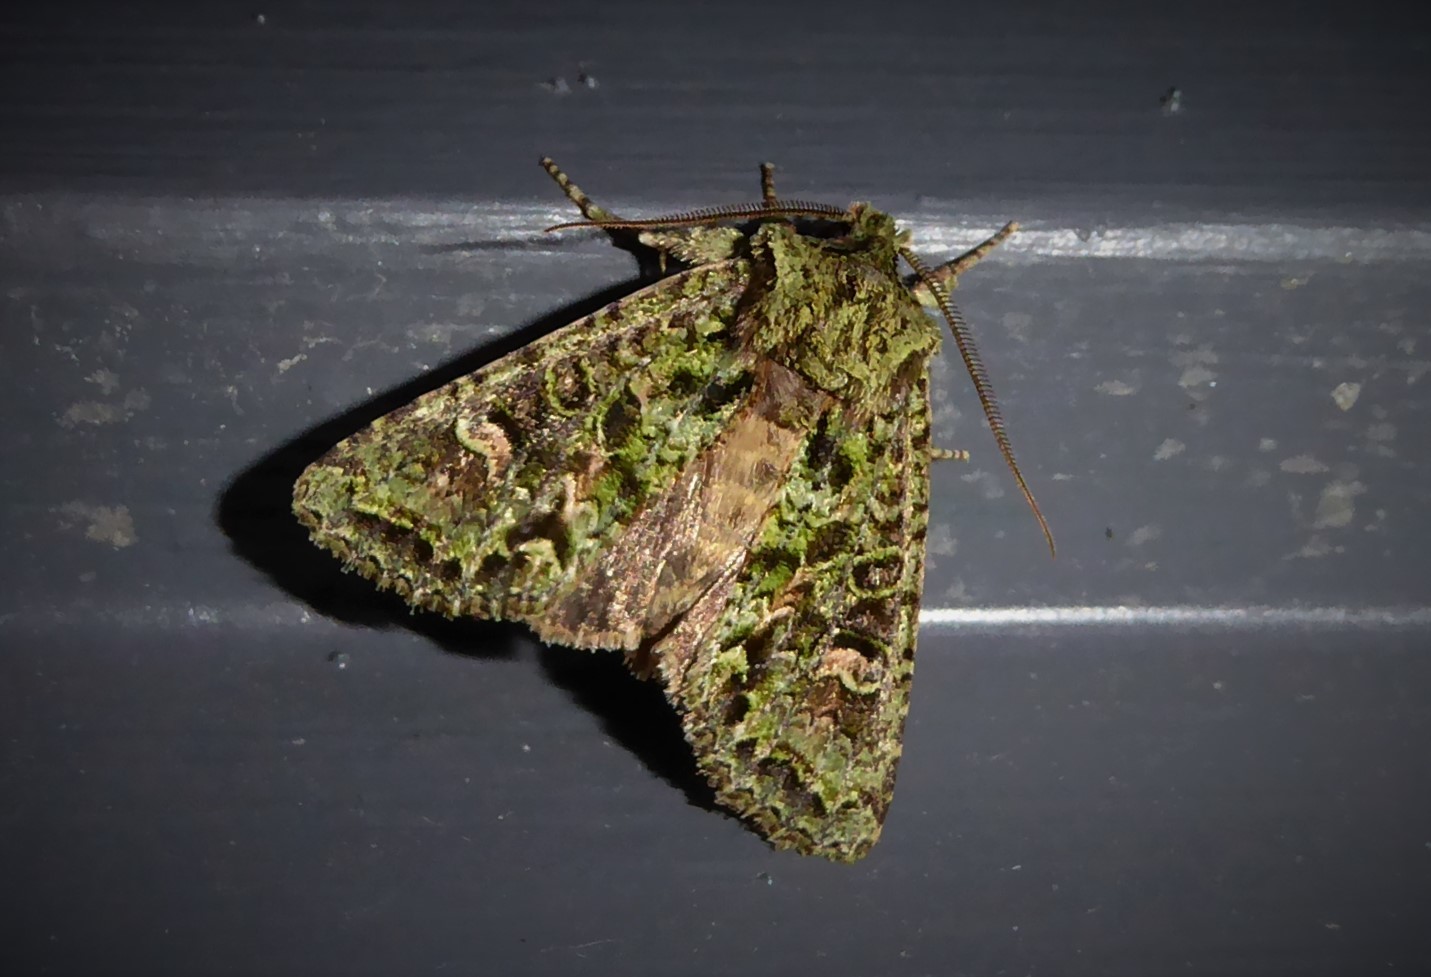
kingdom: Animalia
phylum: Arthropoda
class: Insecta
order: Lepidoptera
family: Noctuidae
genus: Ichneutica
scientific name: Ichneutica
